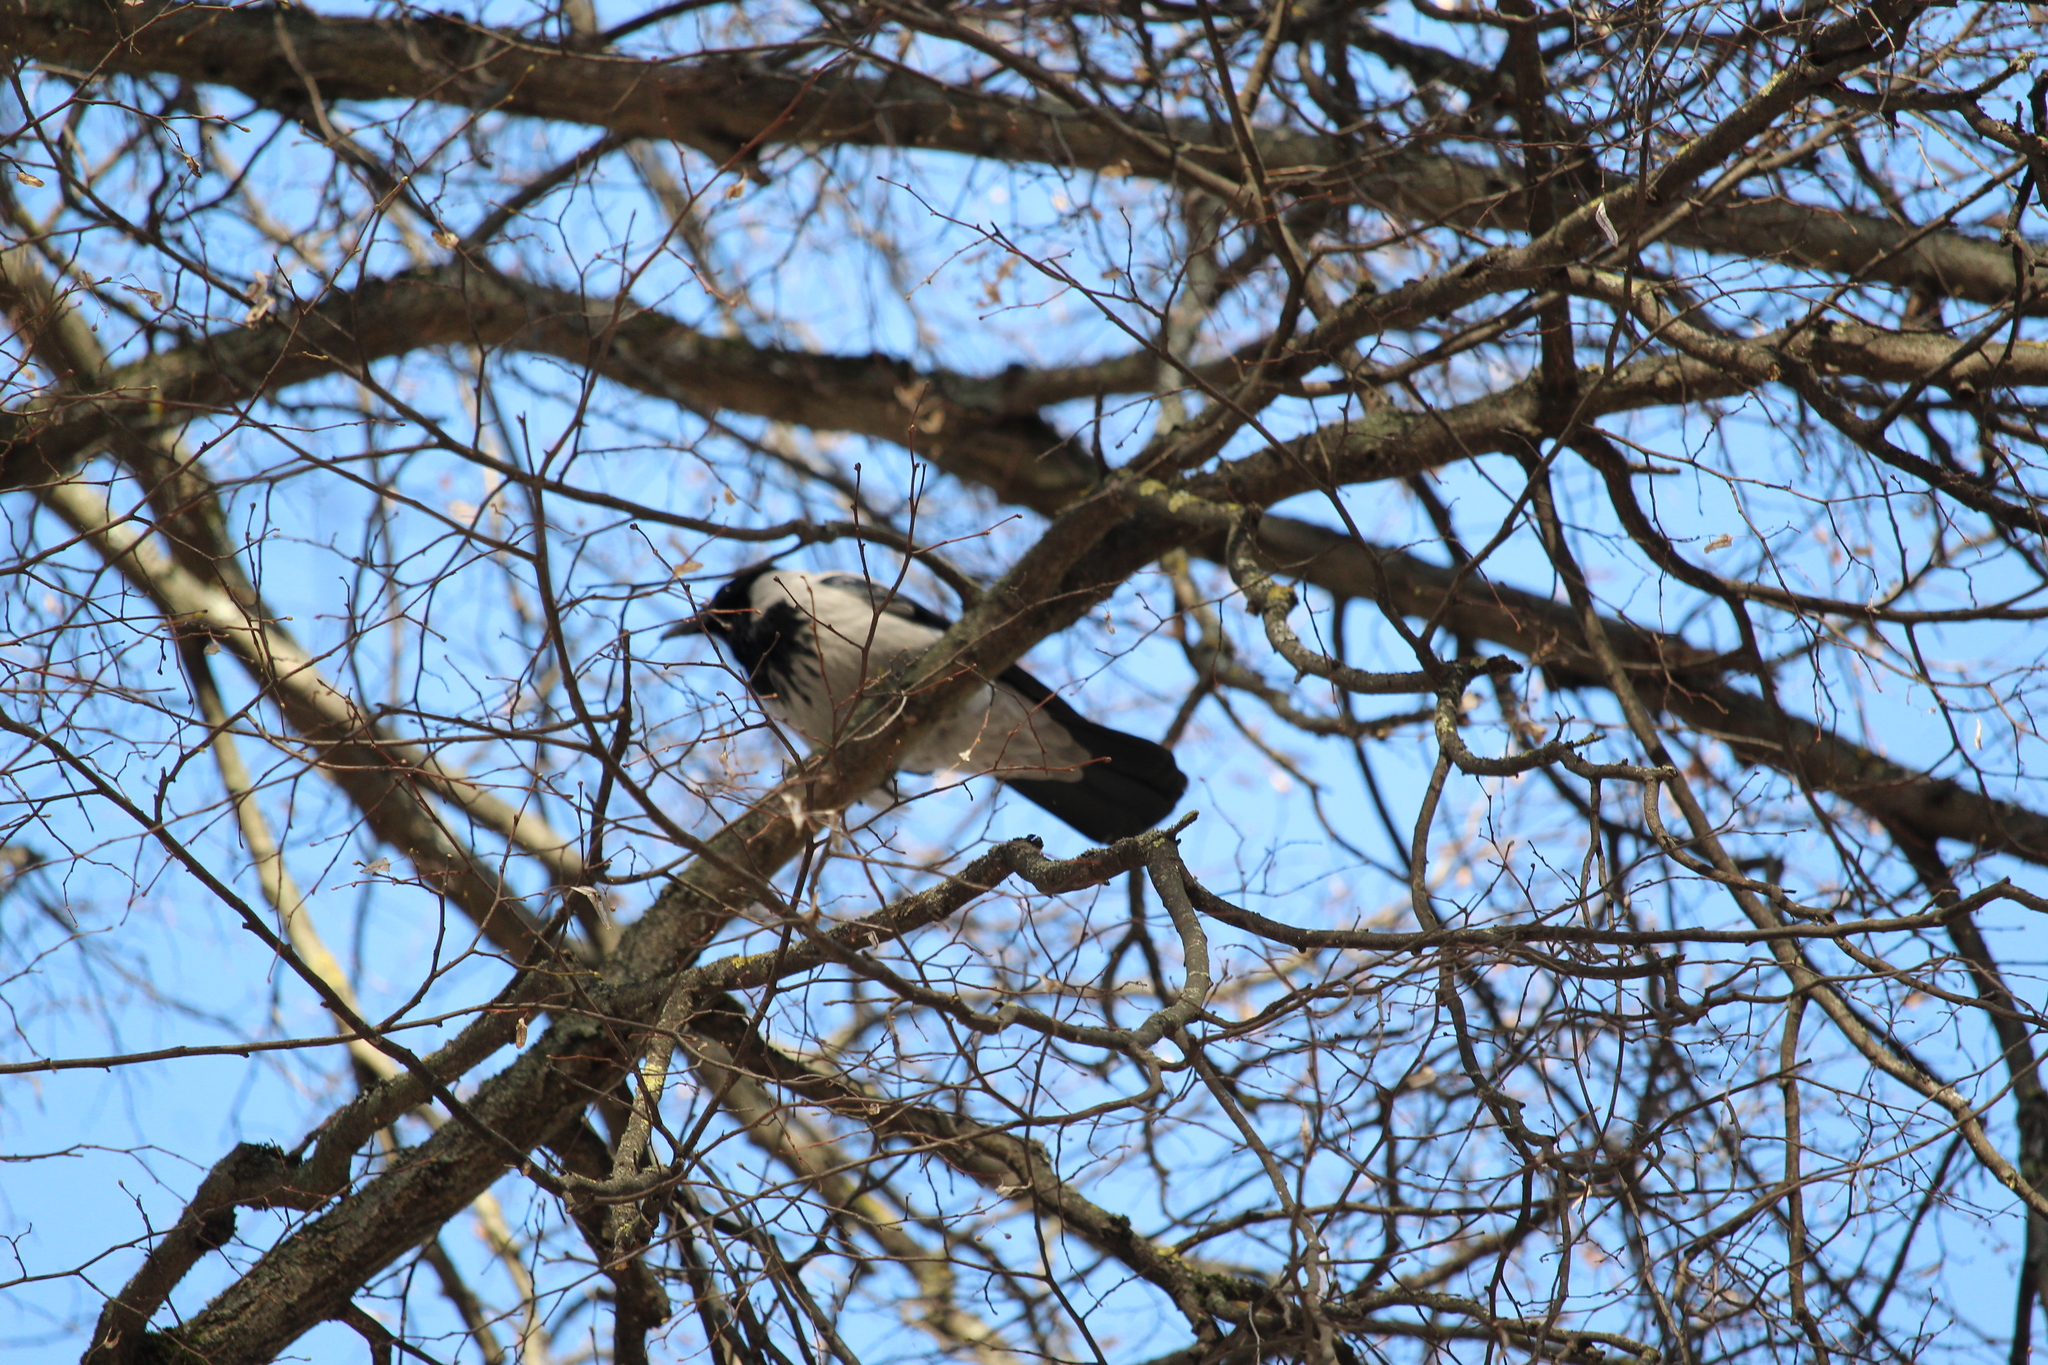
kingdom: Animalia
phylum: Chordata
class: Aves
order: Passeriformes
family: Corvidae
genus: Corvus
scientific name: Corvus cornix
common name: Hooded crow
